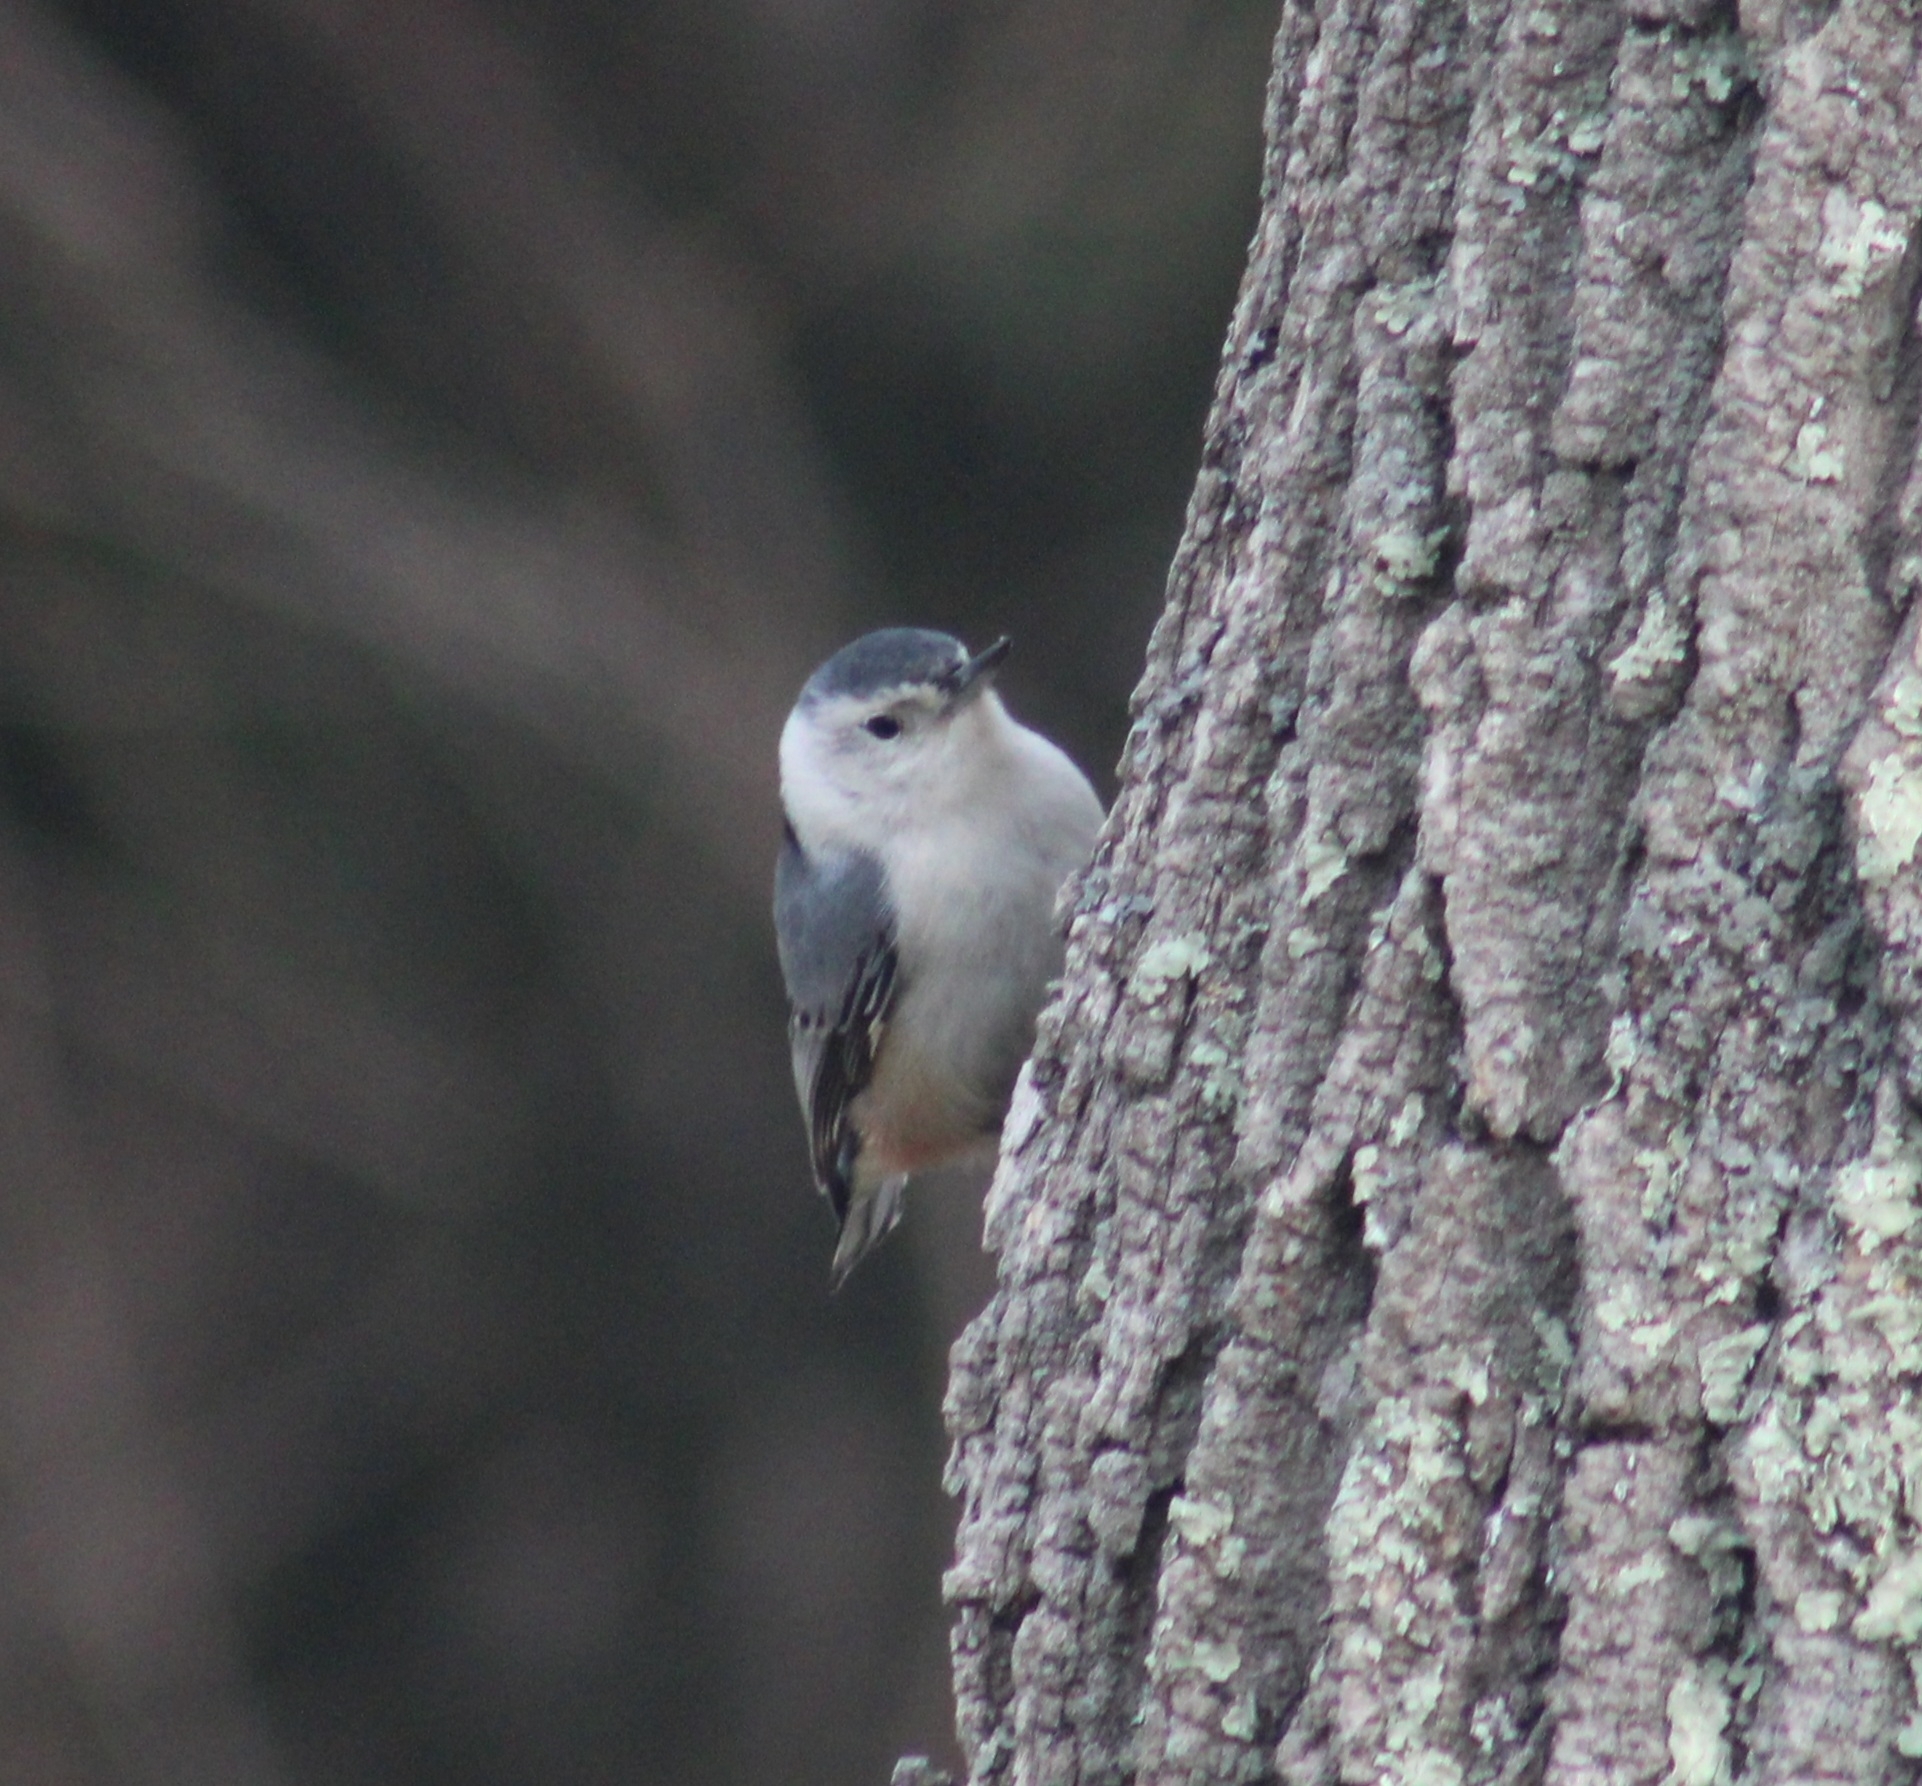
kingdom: Animalia
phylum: Chordata
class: Aves
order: Passeriformes
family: Sittidae
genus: Sitta
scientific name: Sitta carolinensis
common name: White-breasted nuthatch
